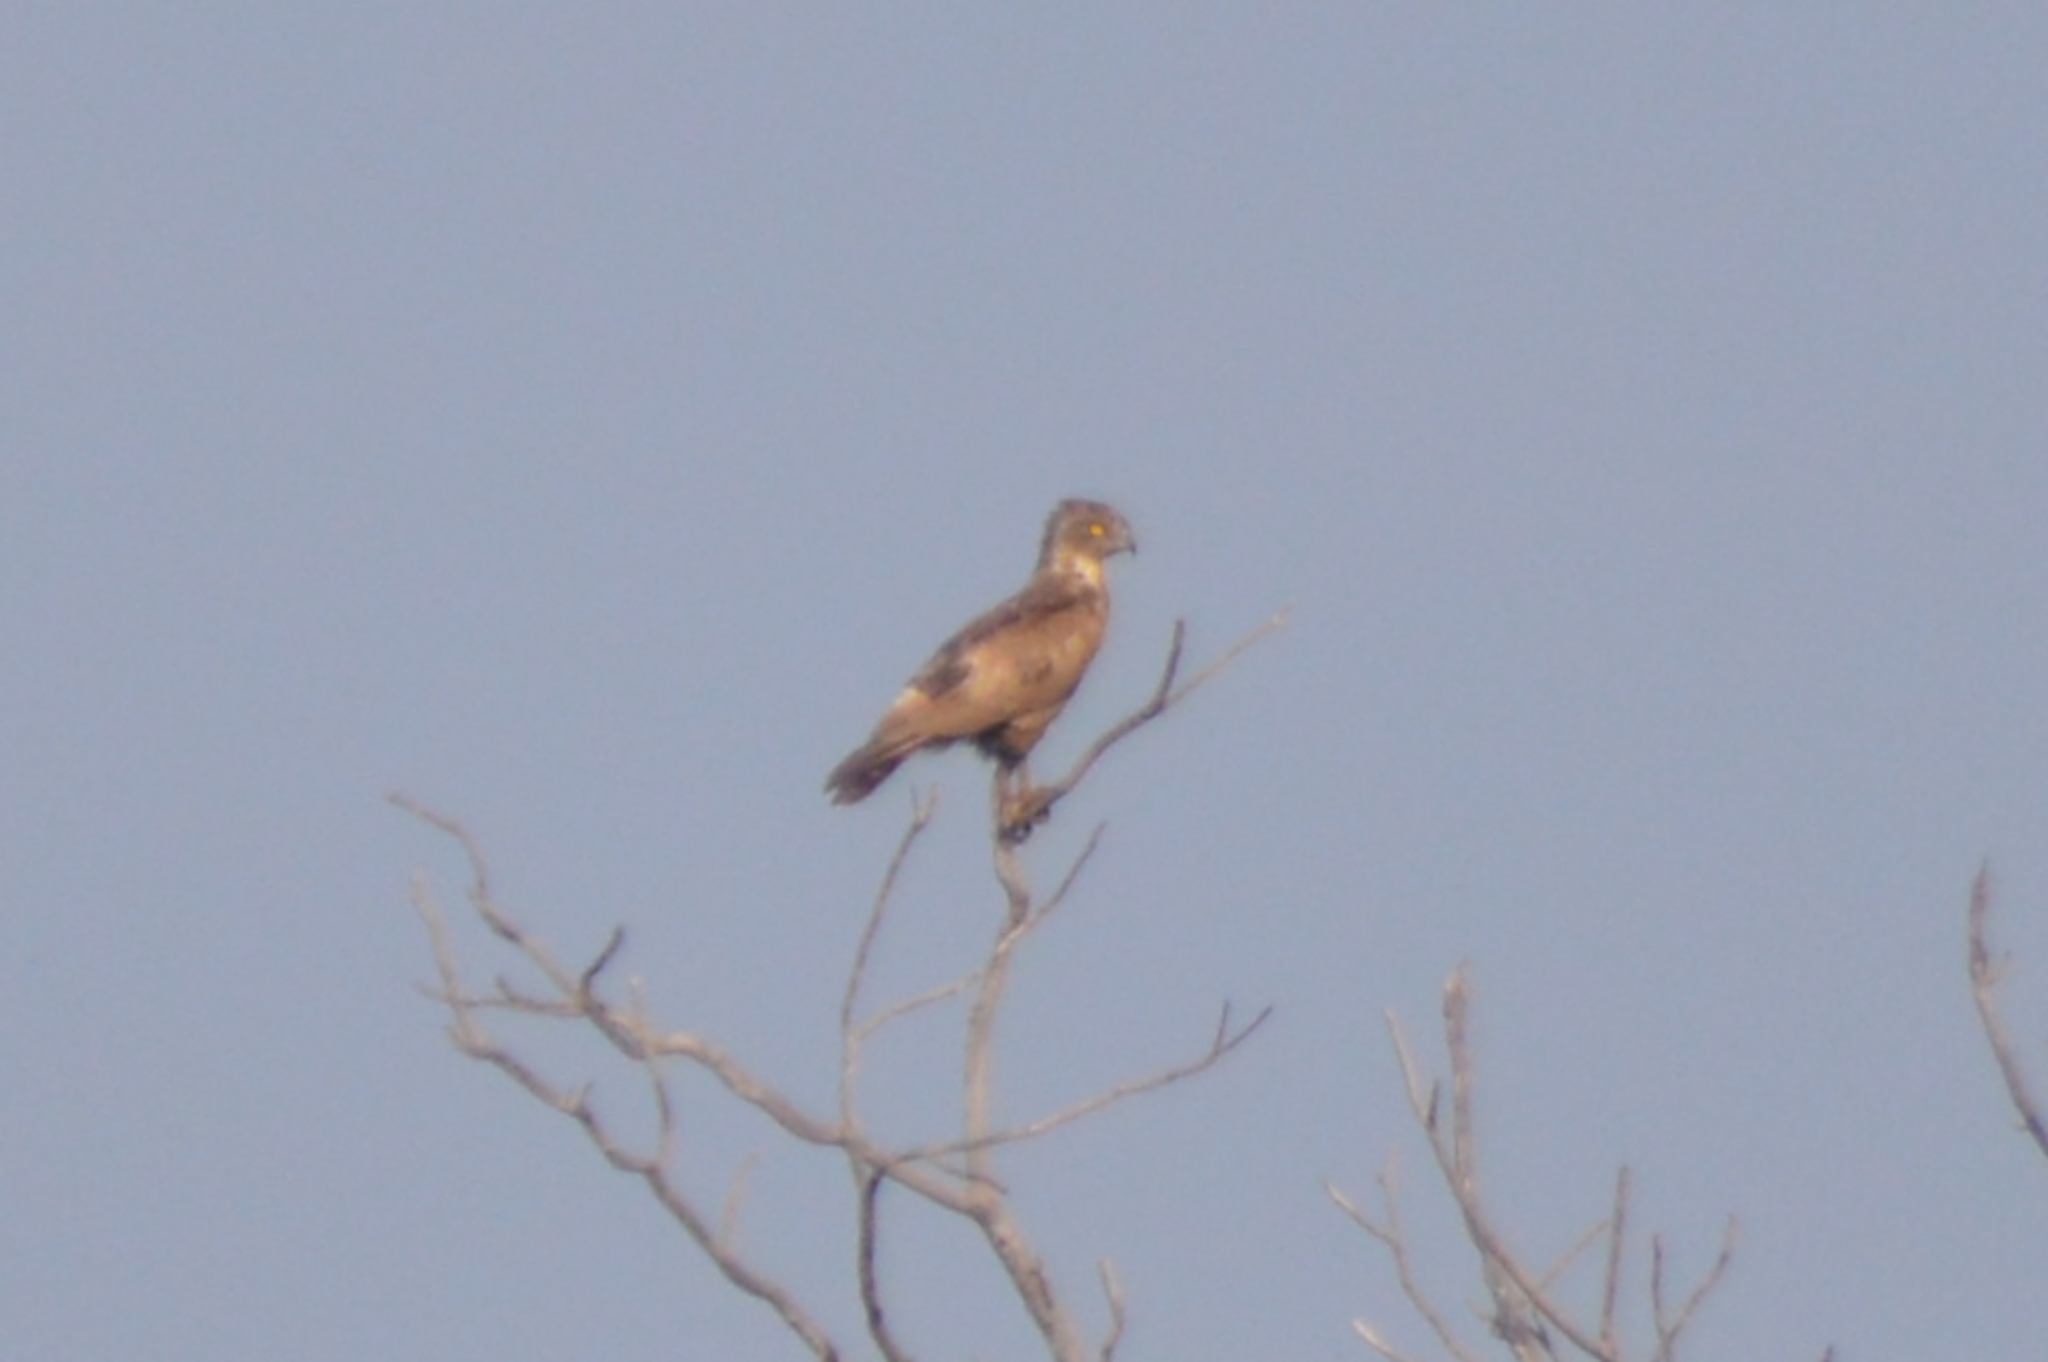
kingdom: Animalia
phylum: Chordata
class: Aves
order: Accipitriformes
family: Accipitridae
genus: Circaetus
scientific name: Circaetus cinereus
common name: Brown snake eagle
